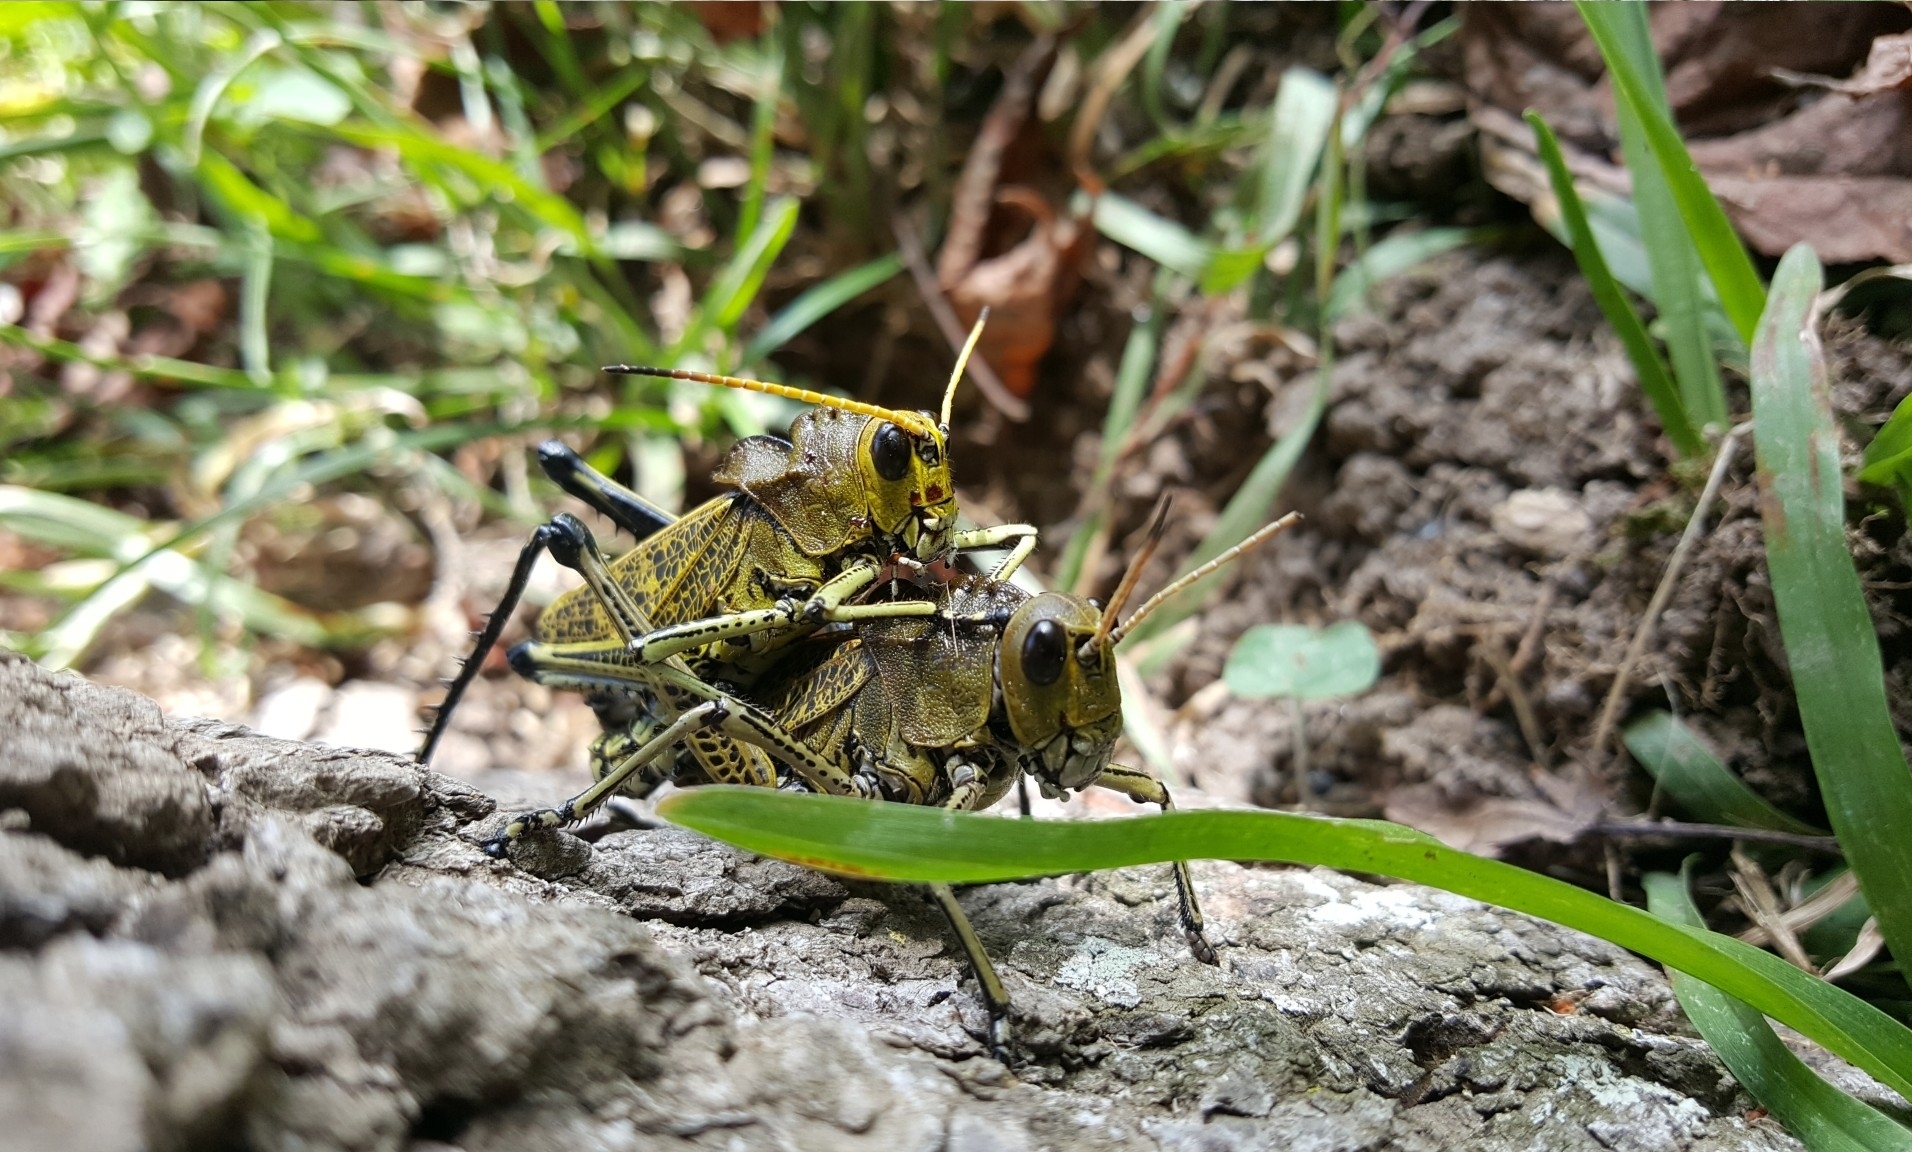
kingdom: Animalia
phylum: Arthropoda
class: Insecta
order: Orthoptera
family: Romaleidae
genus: Romalea
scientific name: Romalea
